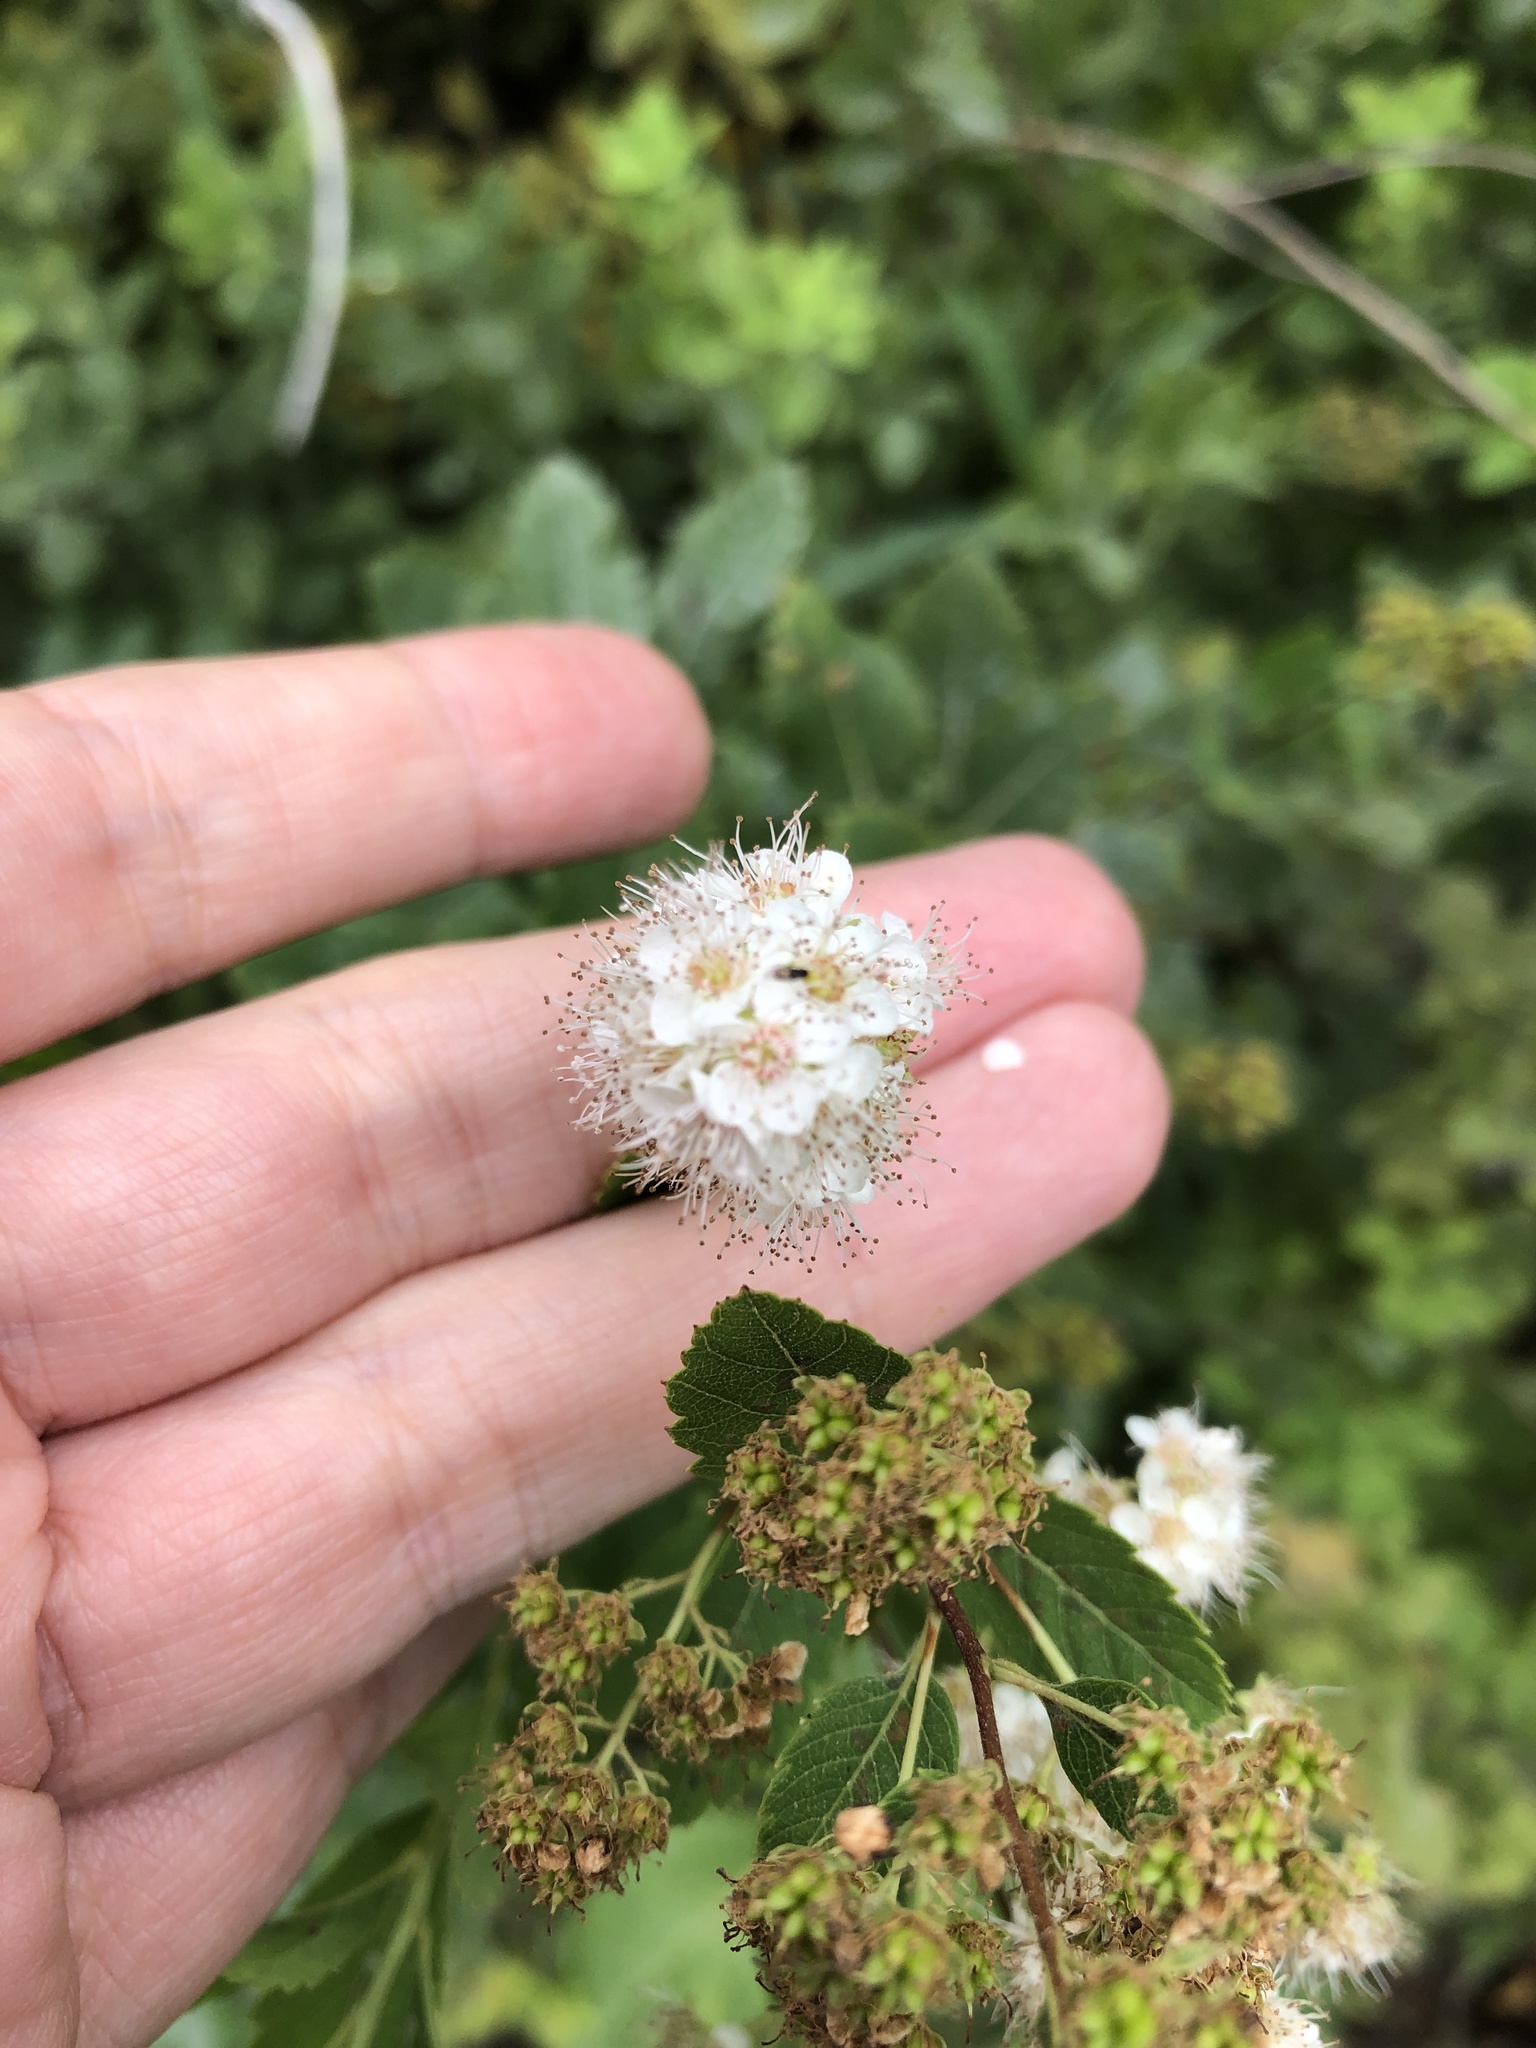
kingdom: Plantae
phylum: Tracheophyta
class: Magnoliopsida
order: Rosales
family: Rosaceae
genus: Spiraea
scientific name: Spiraea alba
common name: Pale bridewort
